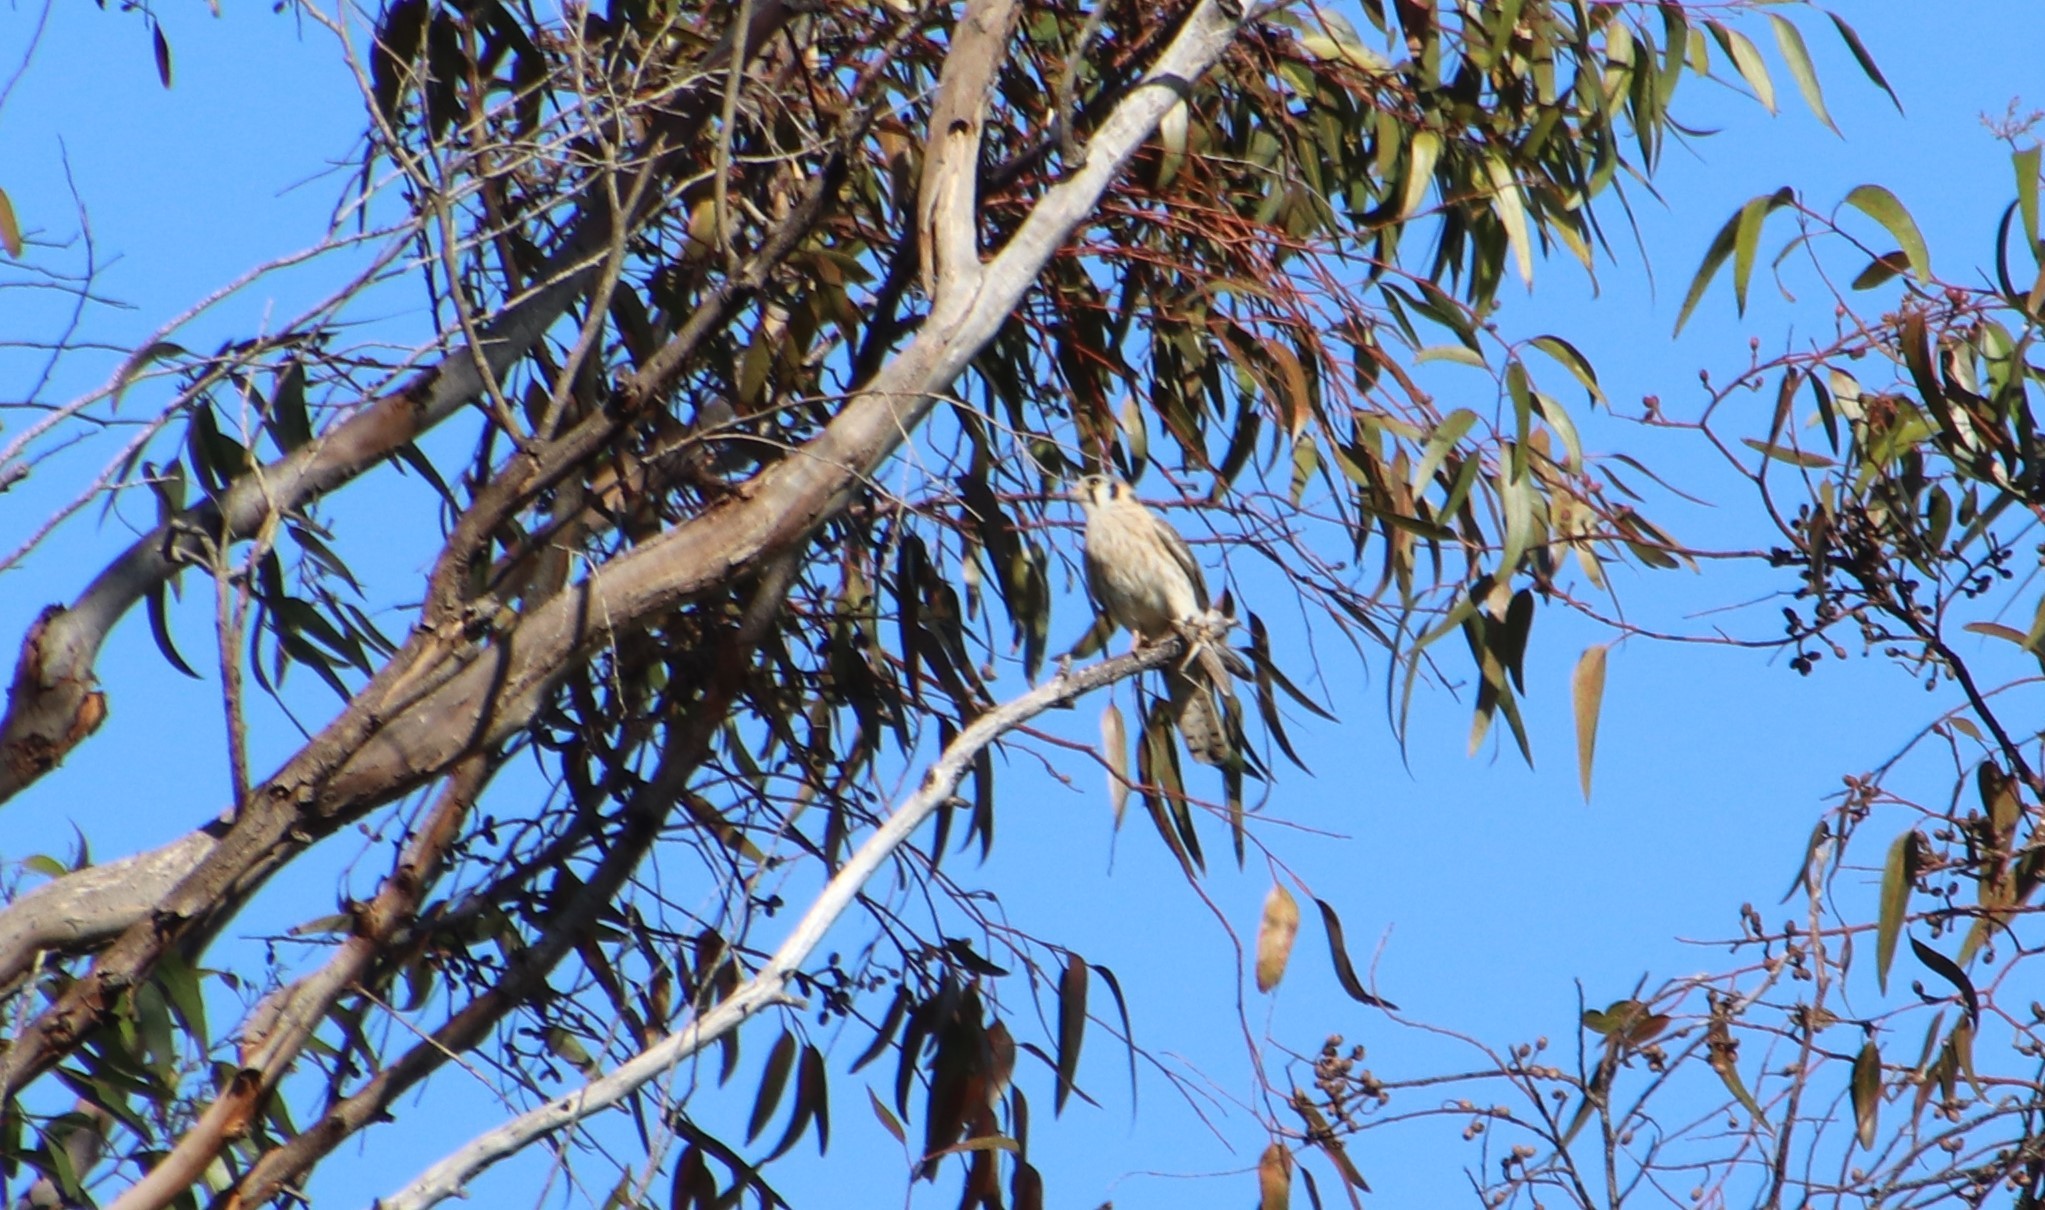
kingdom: Animalia
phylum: Chordata
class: Aves
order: Falconiformes
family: Falconidae
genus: Falco
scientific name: Falco sparverius
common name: American kestrel
